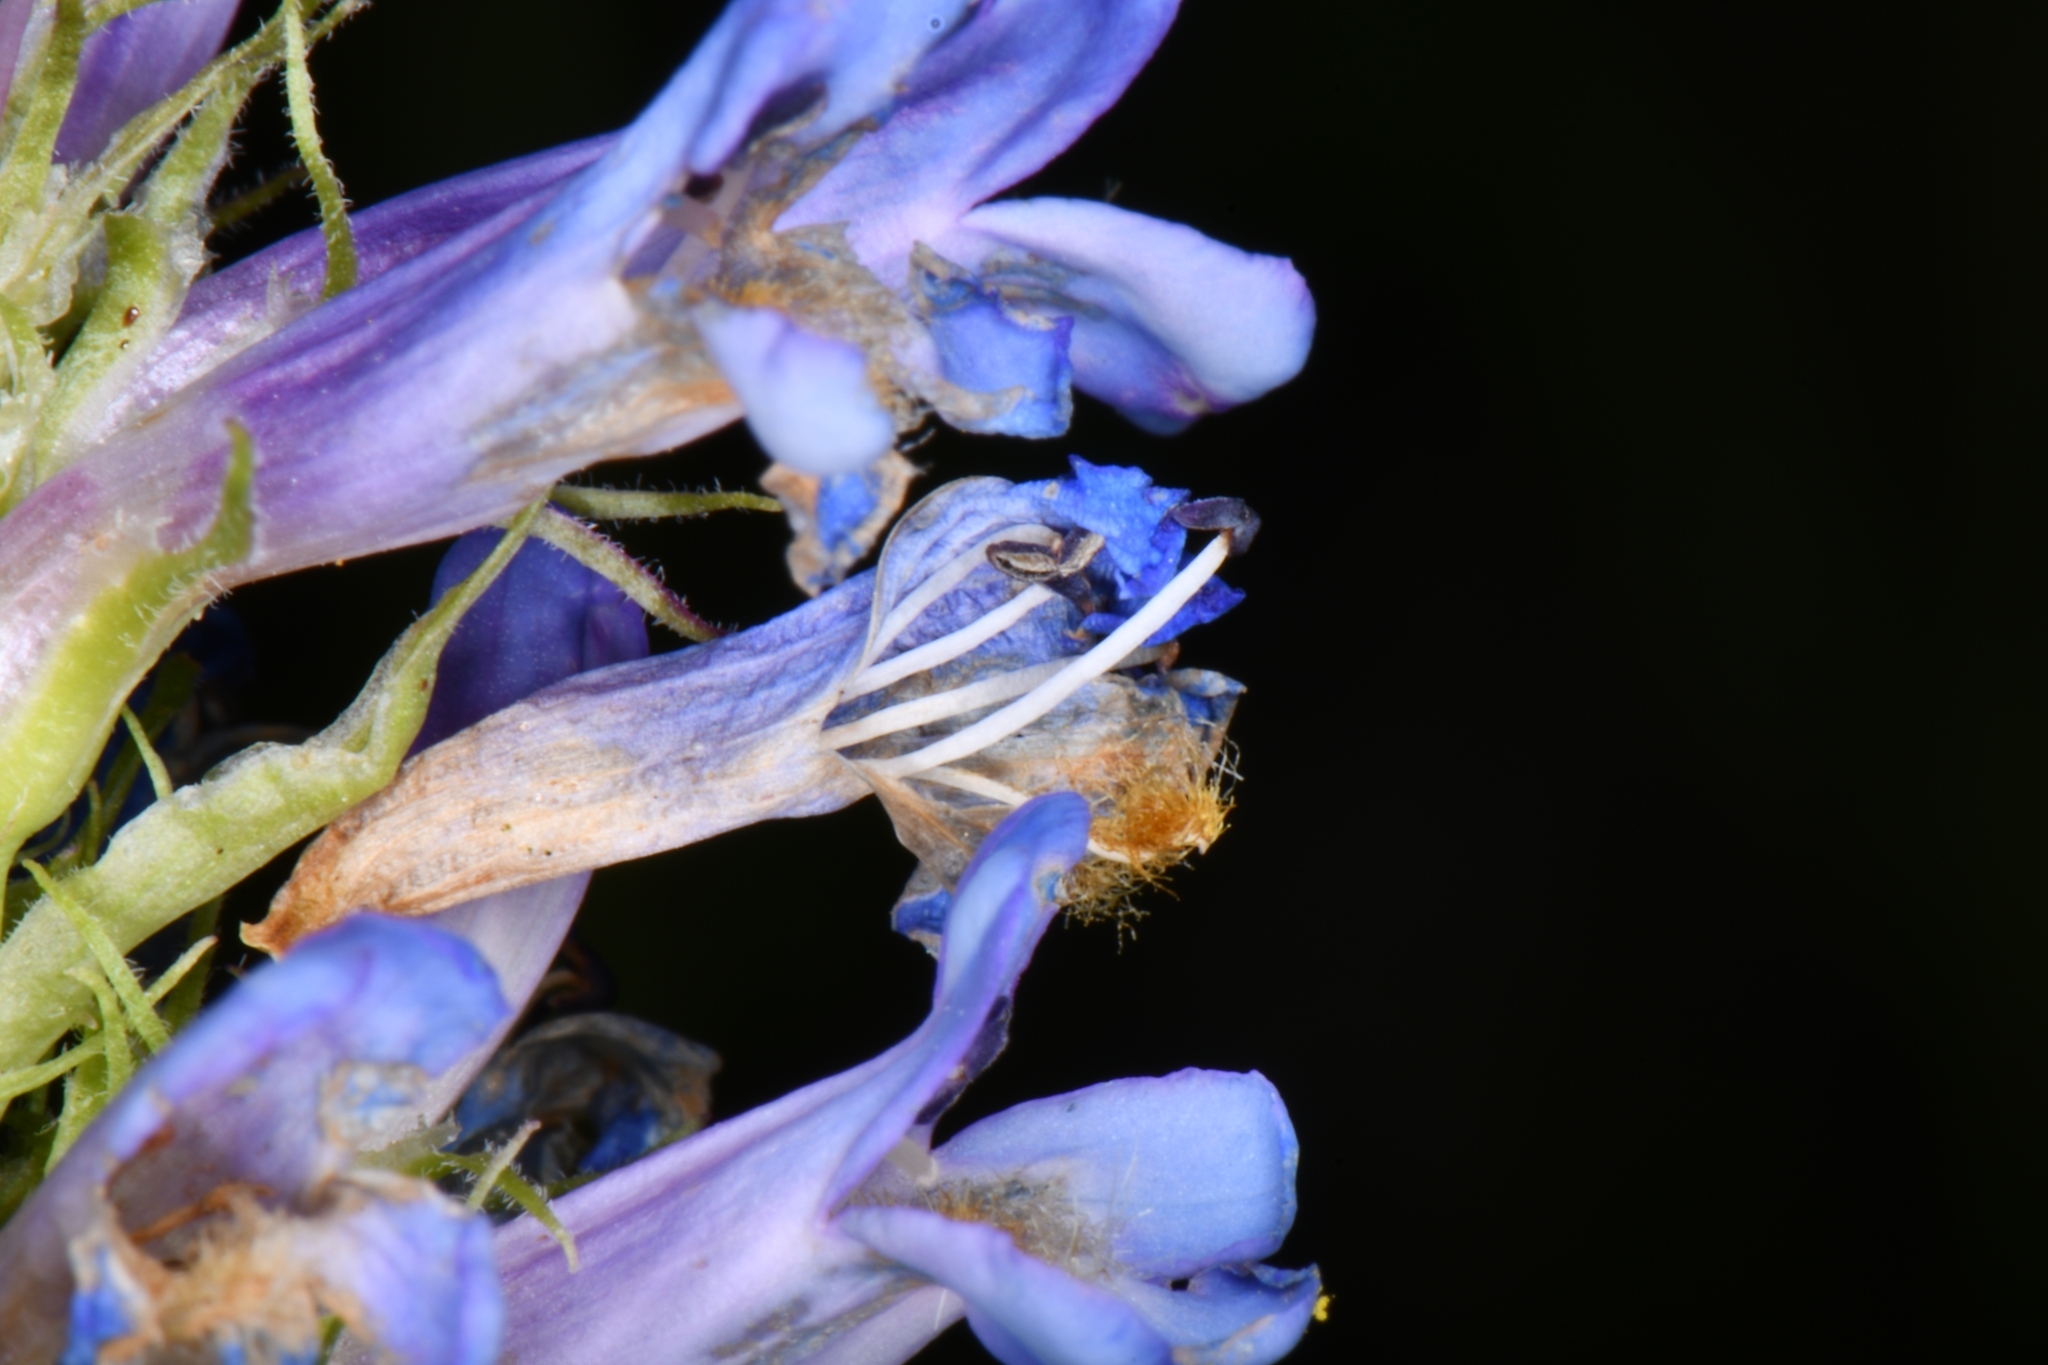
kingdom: Plantae
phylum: Tracheophyta
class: Magnoliopsida
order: Lamiales
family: Plantaginaceae
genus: Penstemon
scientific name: Penstemon rydbergii
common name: Rydberg's beardtongue
